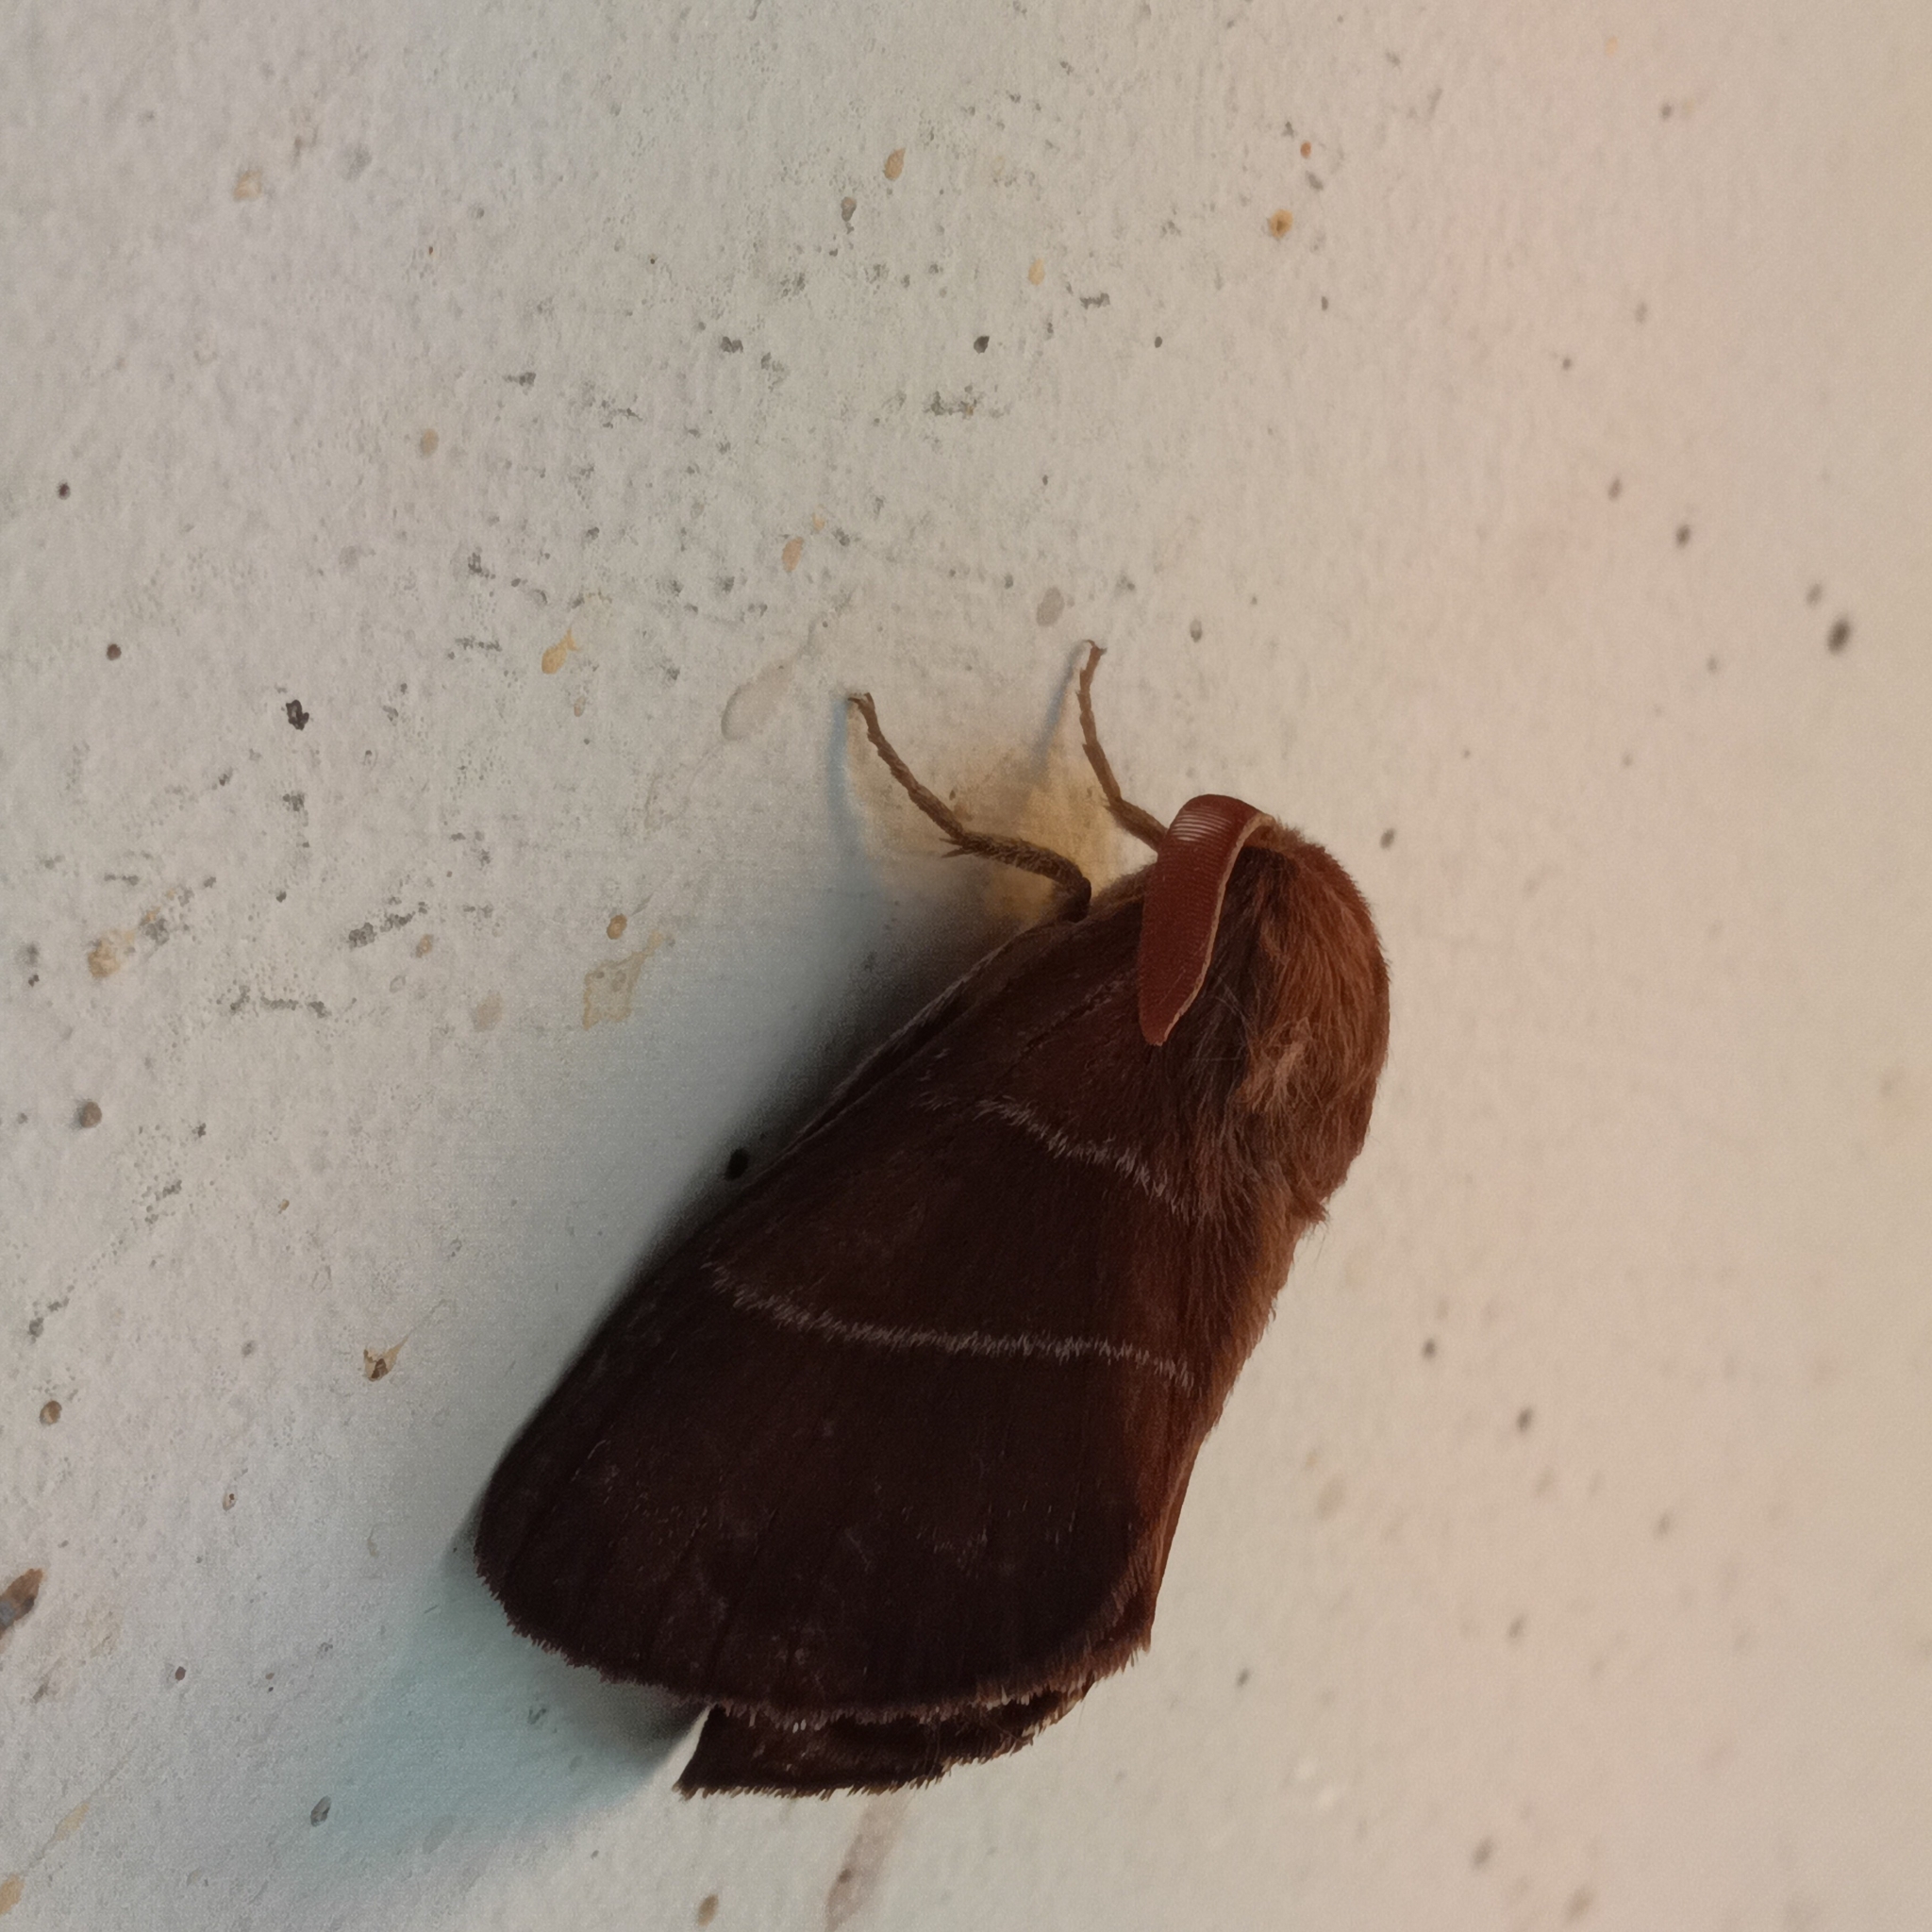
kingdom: Animalia
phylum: Arthropoda
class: Insecta
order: Lepidoptera
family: Lasiocampidae
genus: Macrothylacia
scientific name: Macrothylacia rubi
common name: Fox moth
